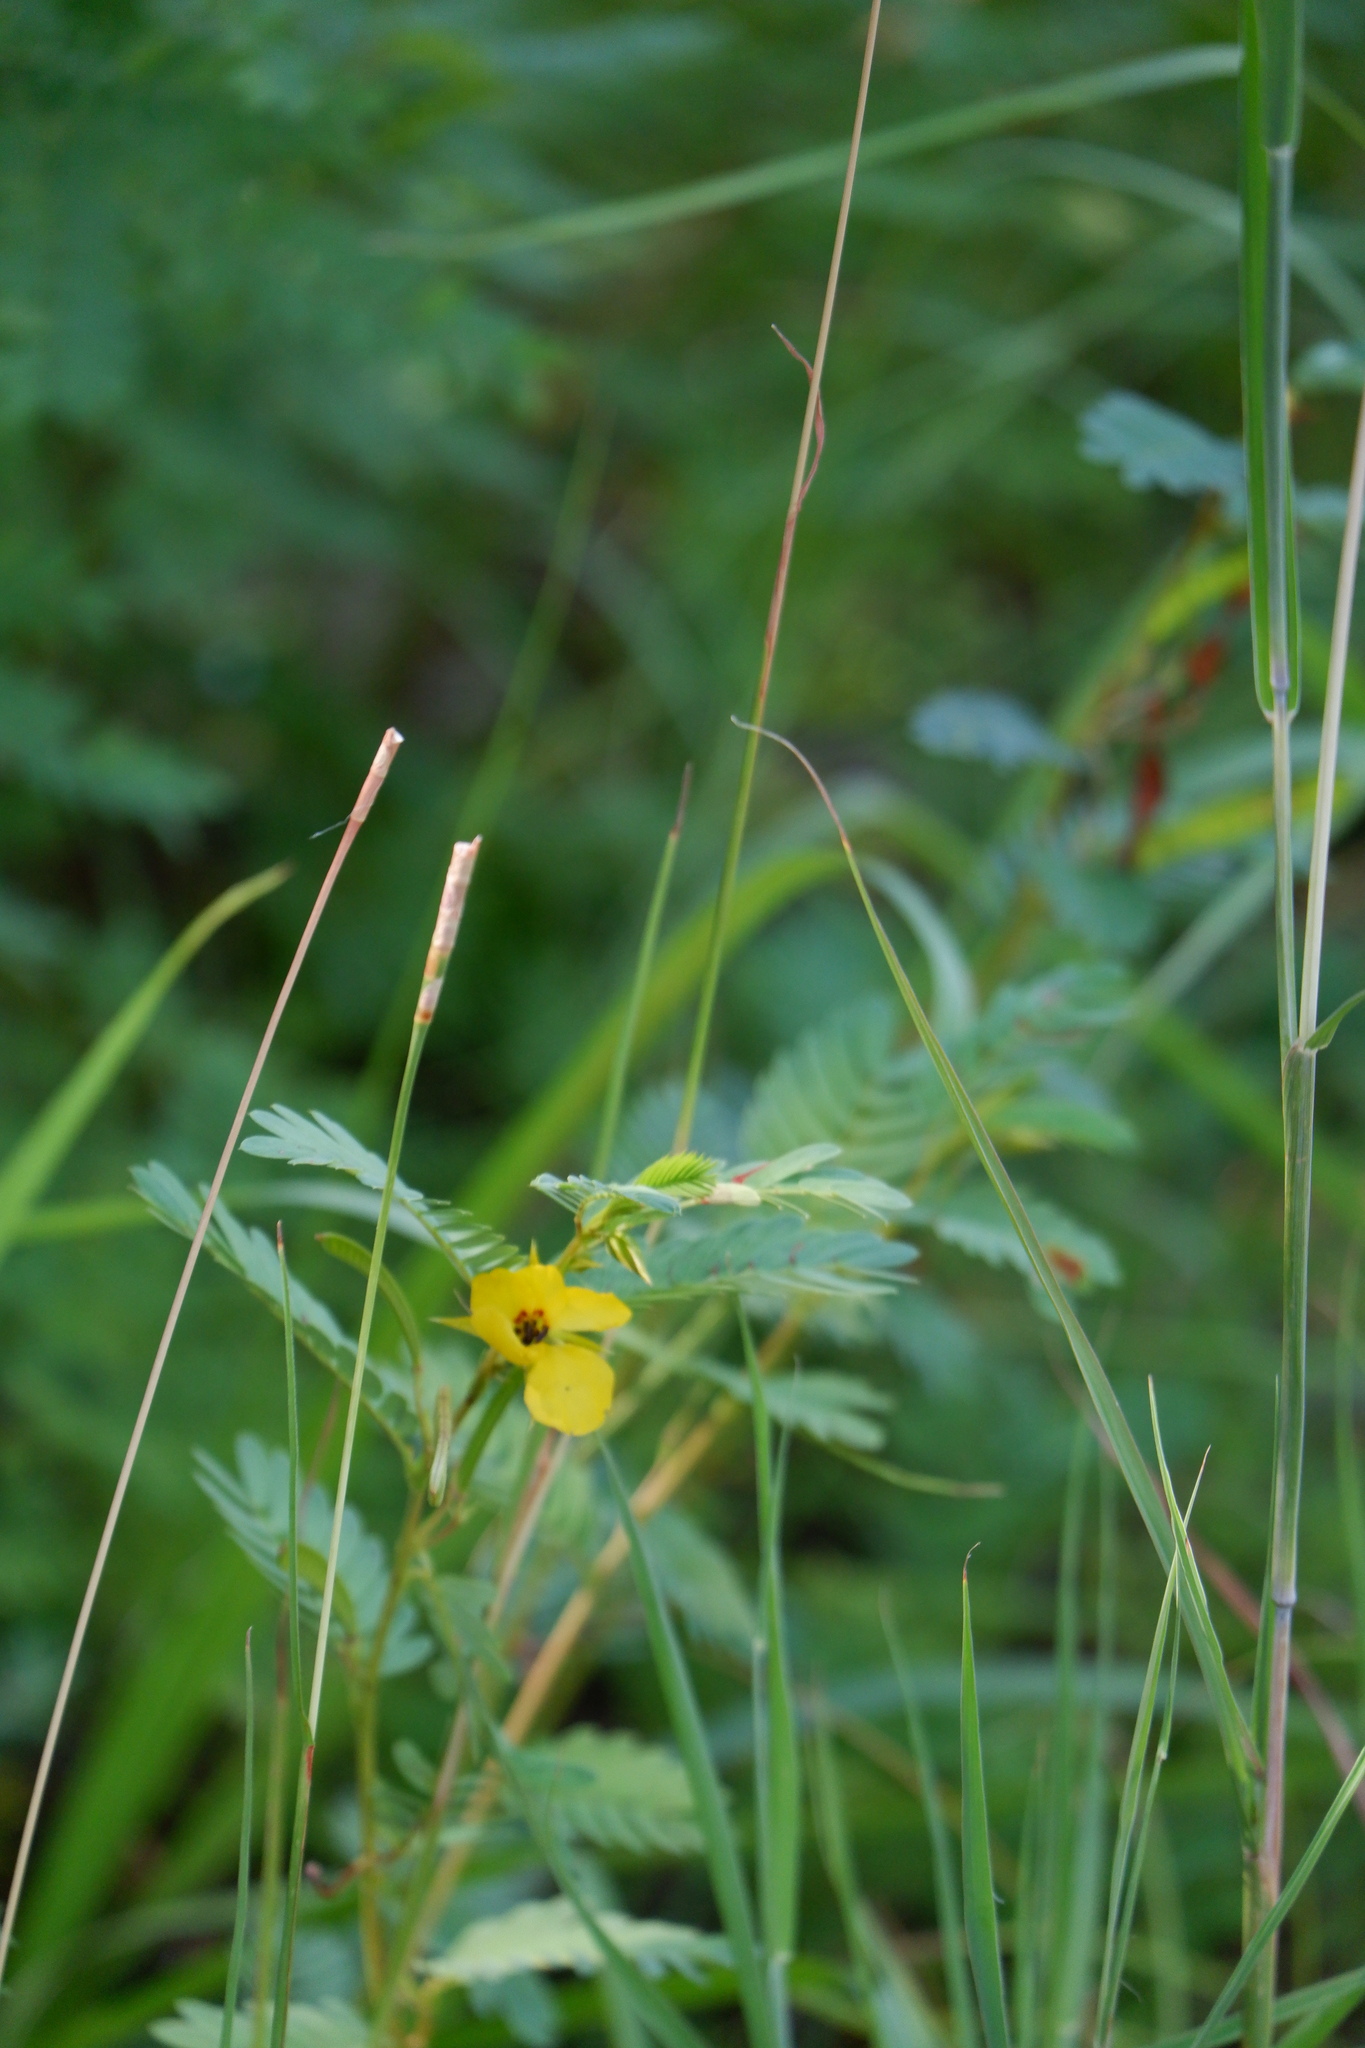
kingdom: Plantae
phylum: Tracheophyta
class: Magnoliopsida
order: Fabales
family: Fabaceae
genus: Chamaecrista
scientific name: Chamaecrista fasciculata
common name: Golden cassia
